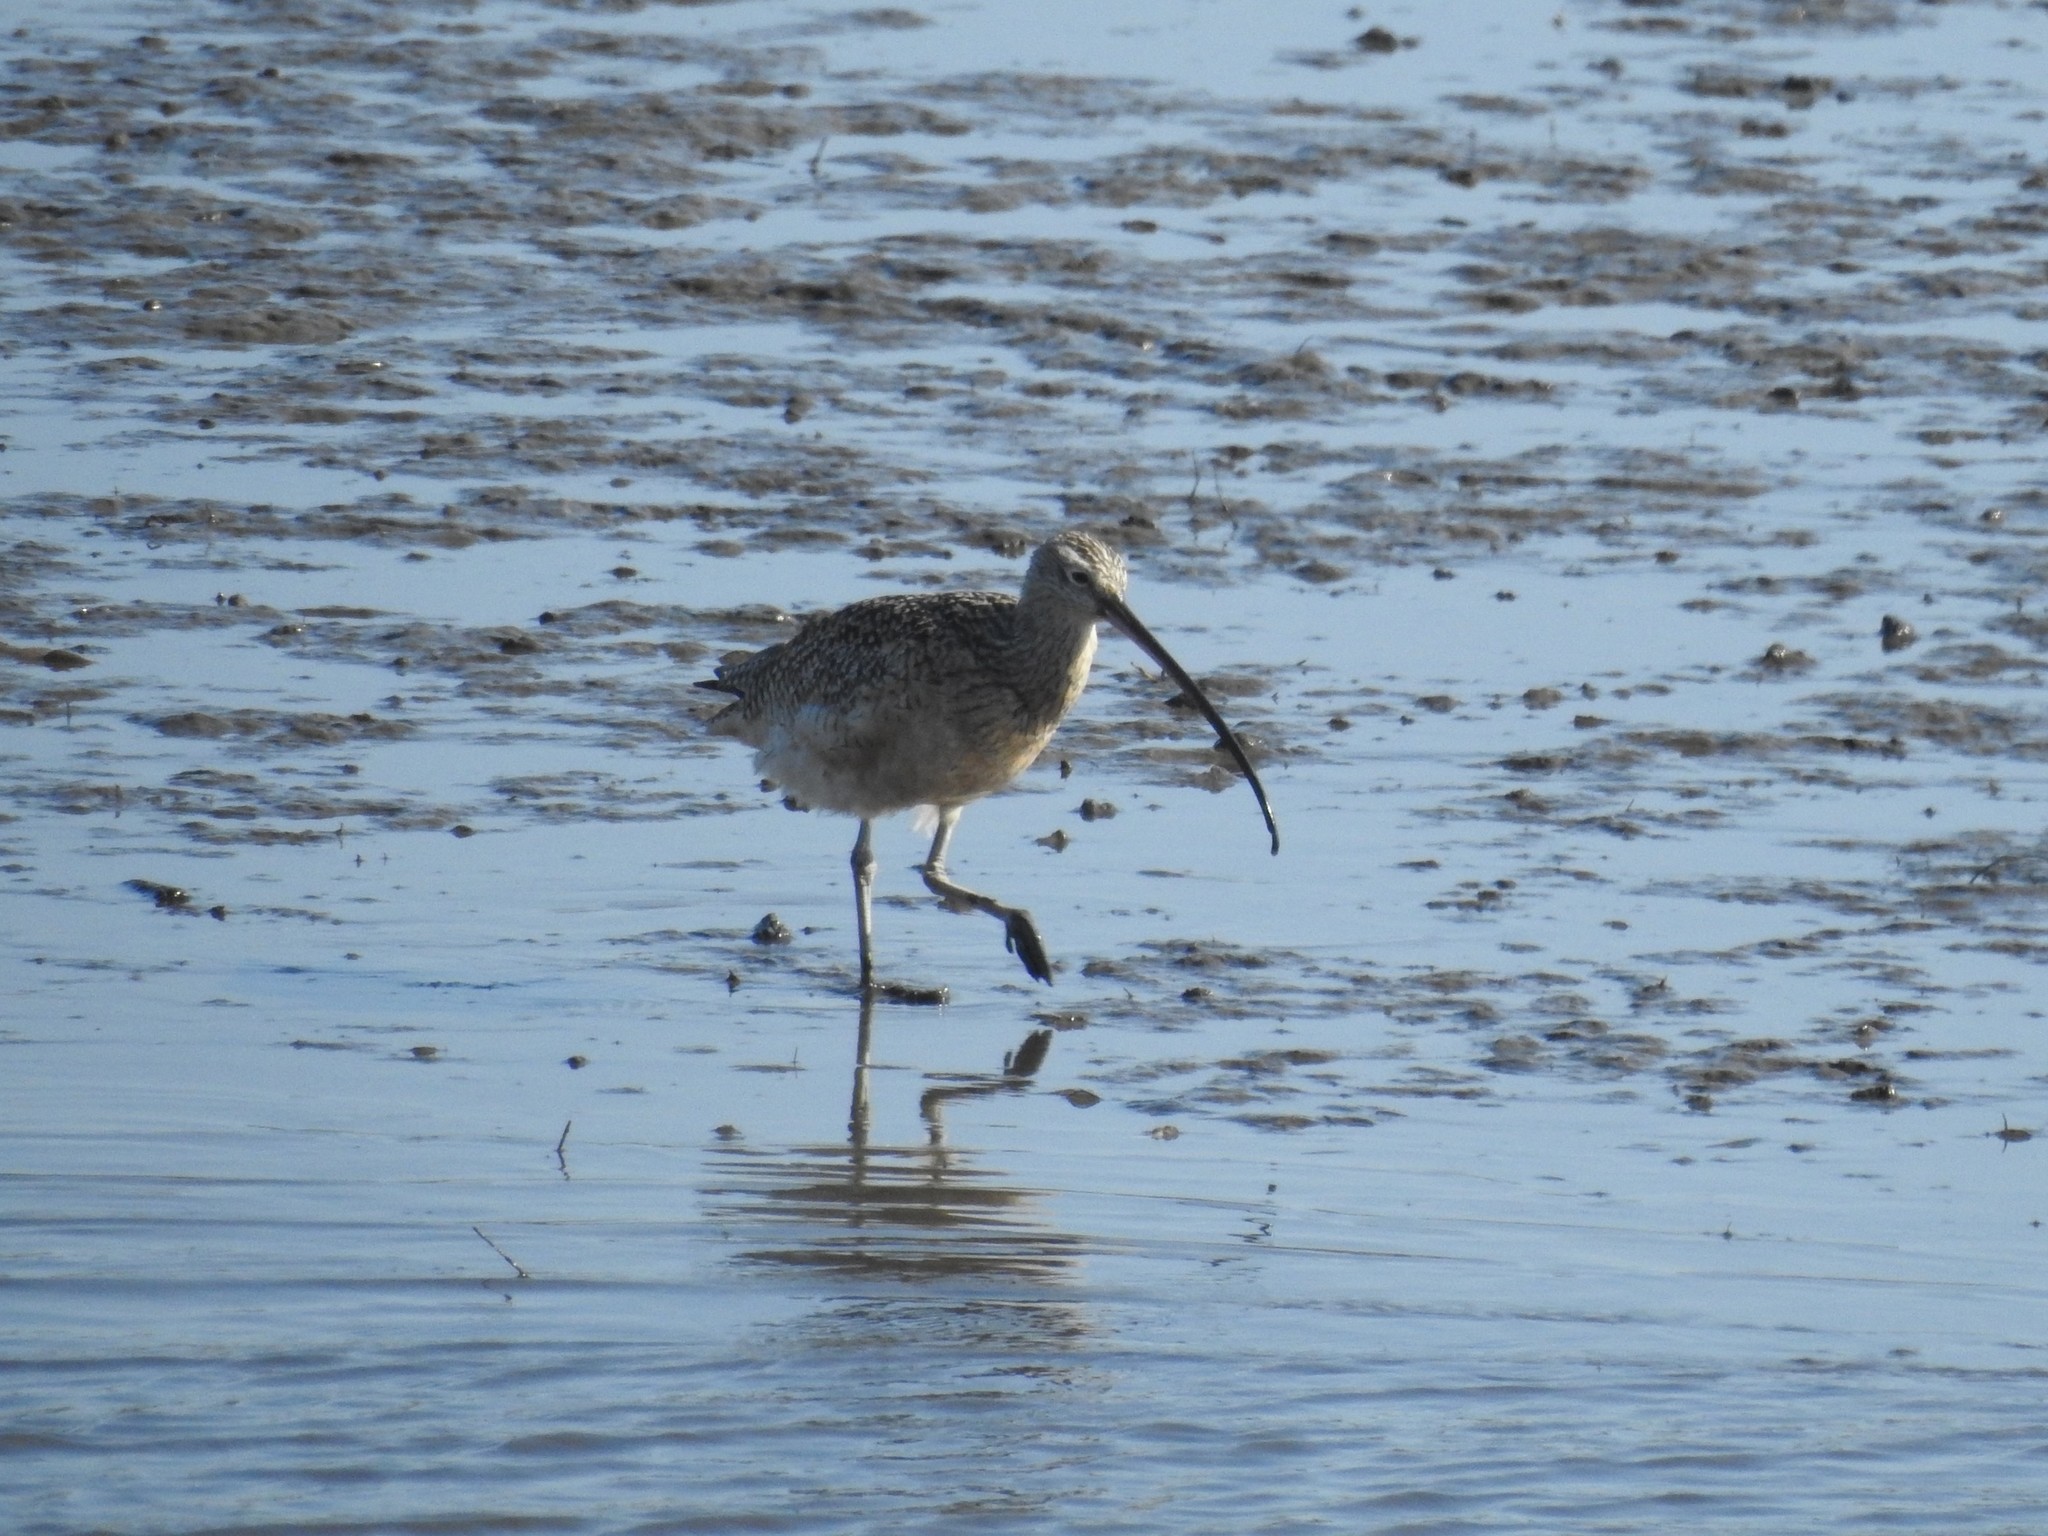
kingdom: Animalia
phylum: Chordata
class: Aves
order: Charadriiformes
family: Scolopacidae
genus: Numenius
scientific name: Numenius americanus
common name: Long-billed curlew
